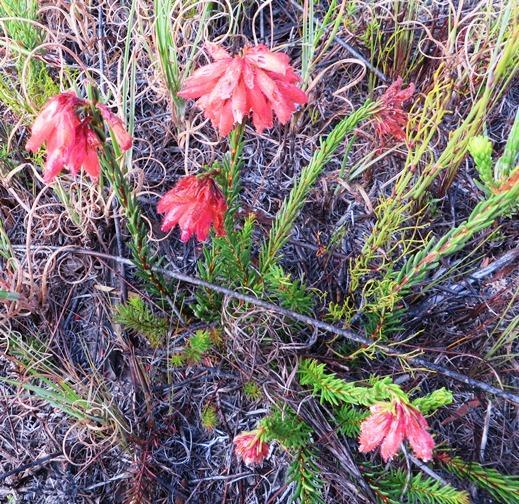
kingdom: Plantae
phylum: Tracheophyta
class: Magnoliopsida
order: Ericales
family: Ericaceae
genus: Erica
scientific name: Erica cerinthoides
